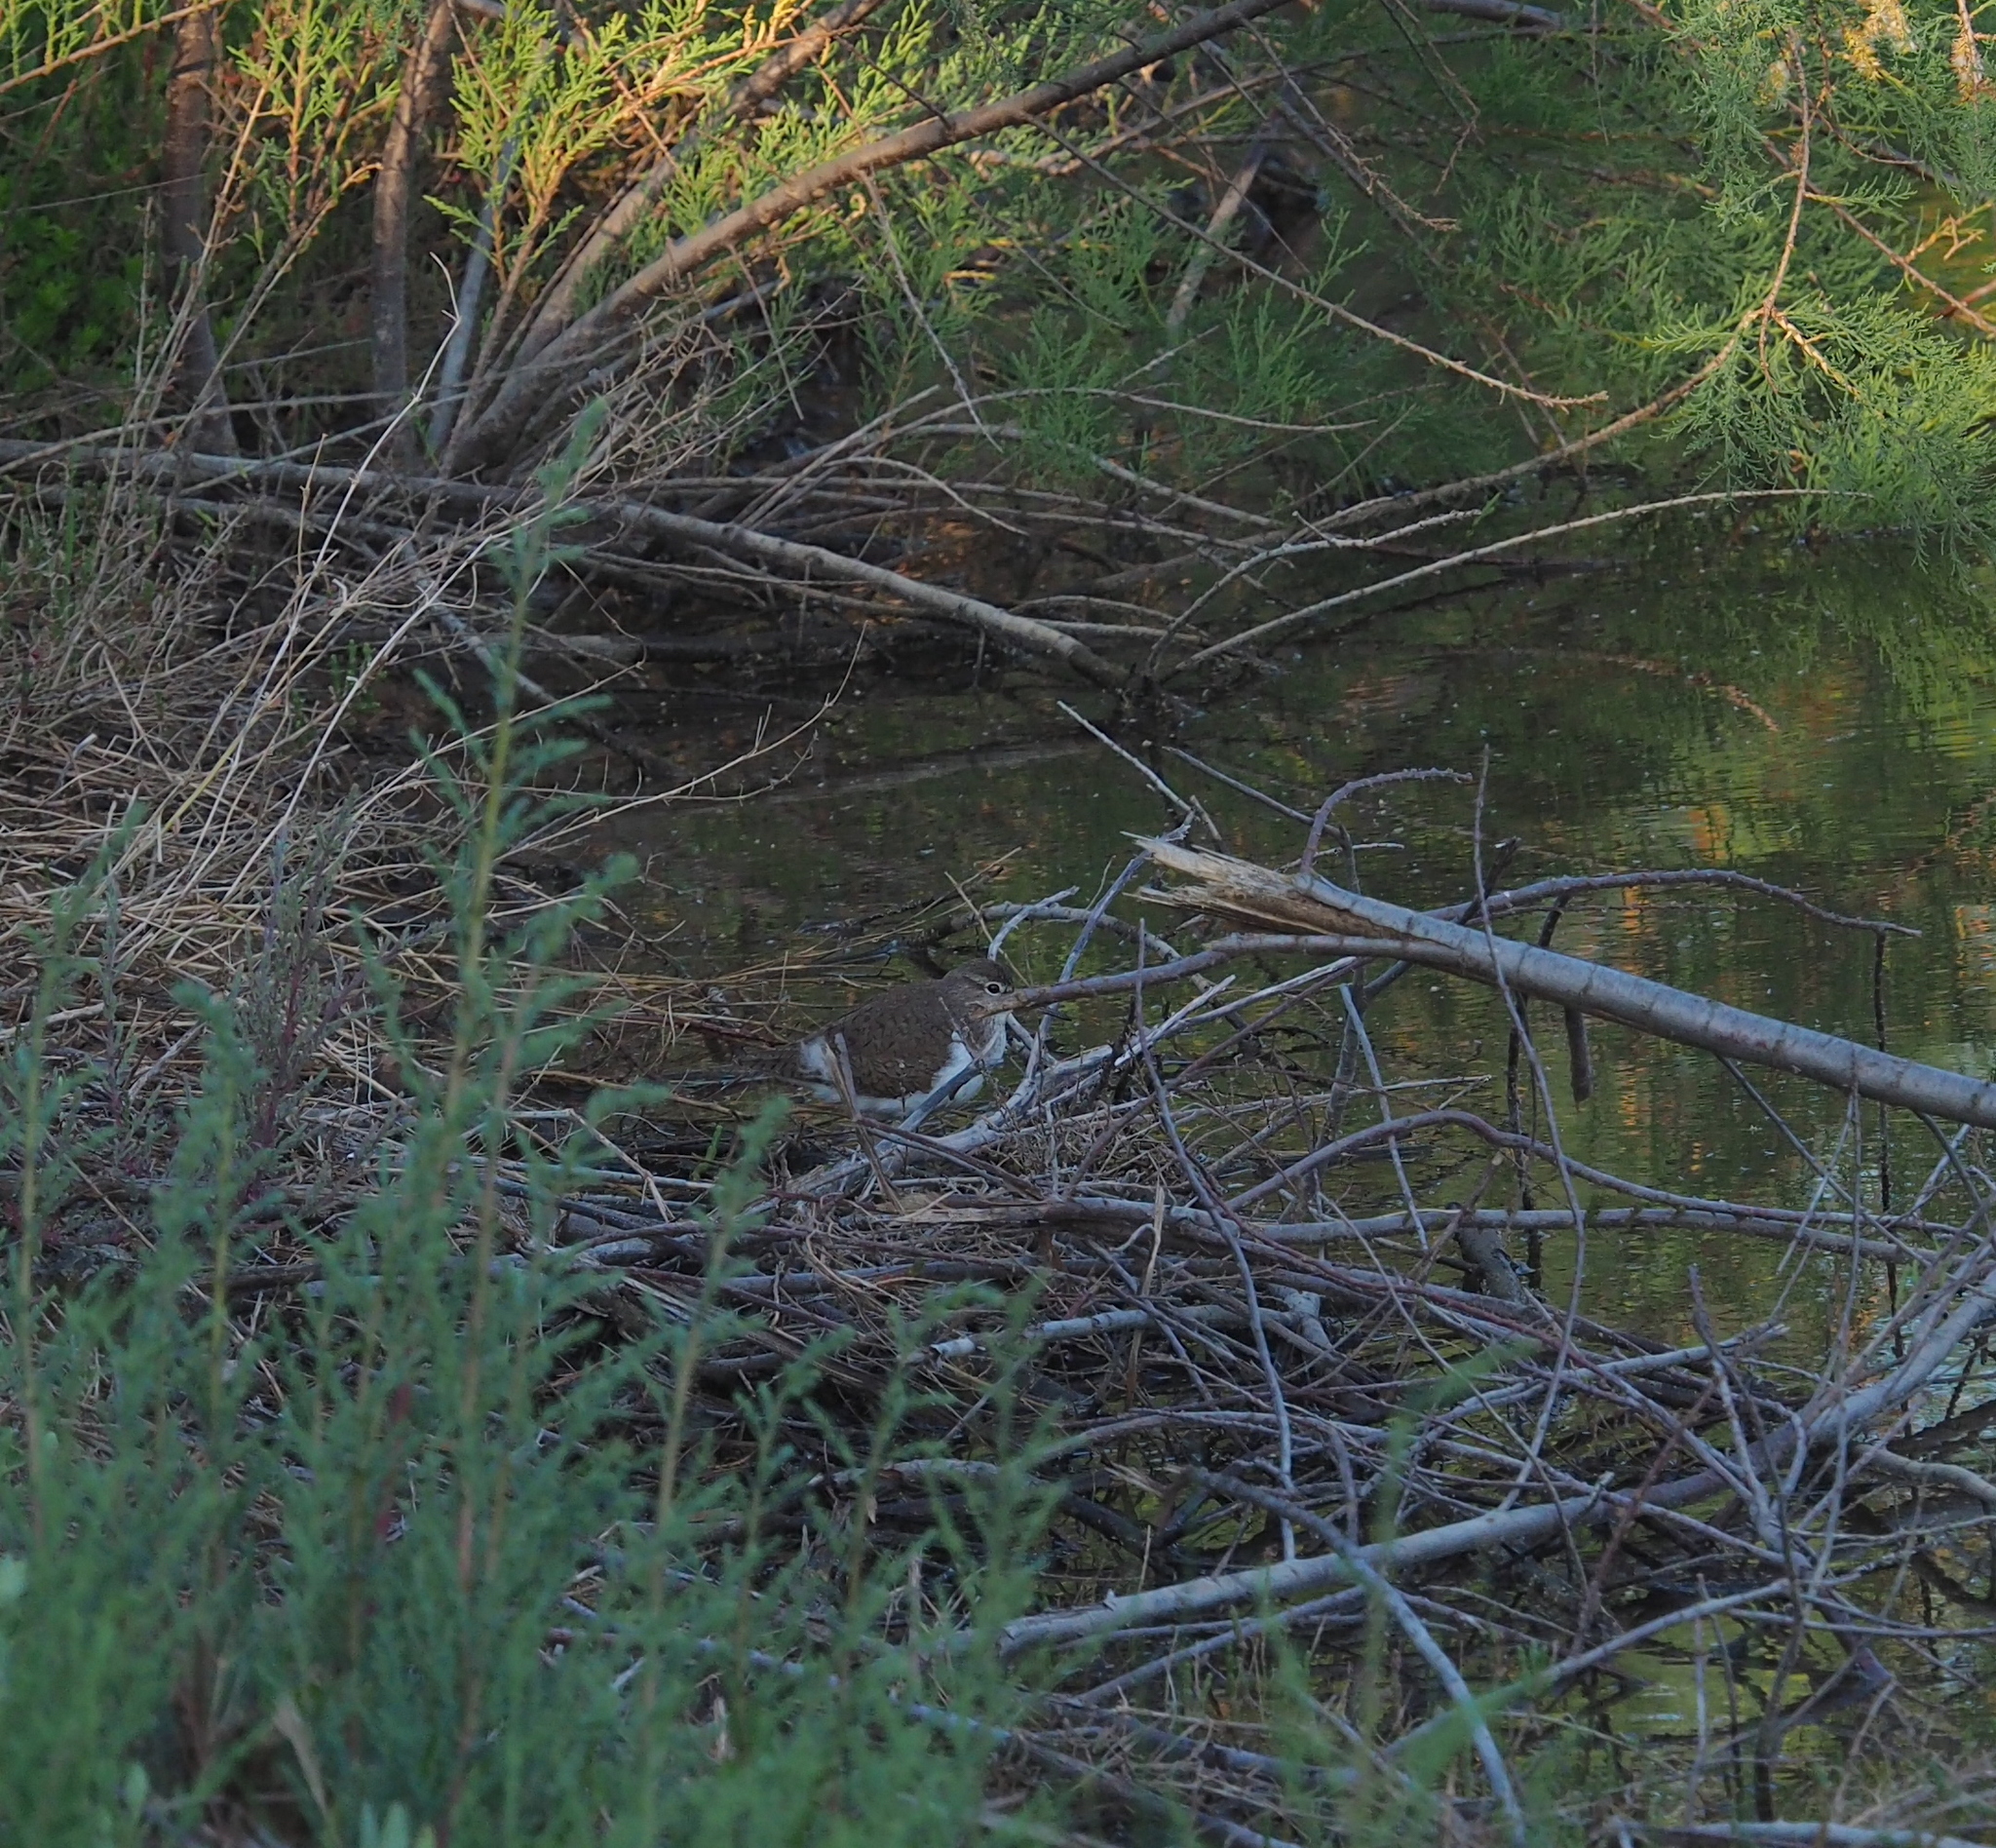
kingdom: Animalia
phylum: Chordata
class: Aves
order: Charadriiformes
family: Scolopacidae
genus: Actitis
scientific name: Actitis hypoleucos
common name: Common sandpiper
